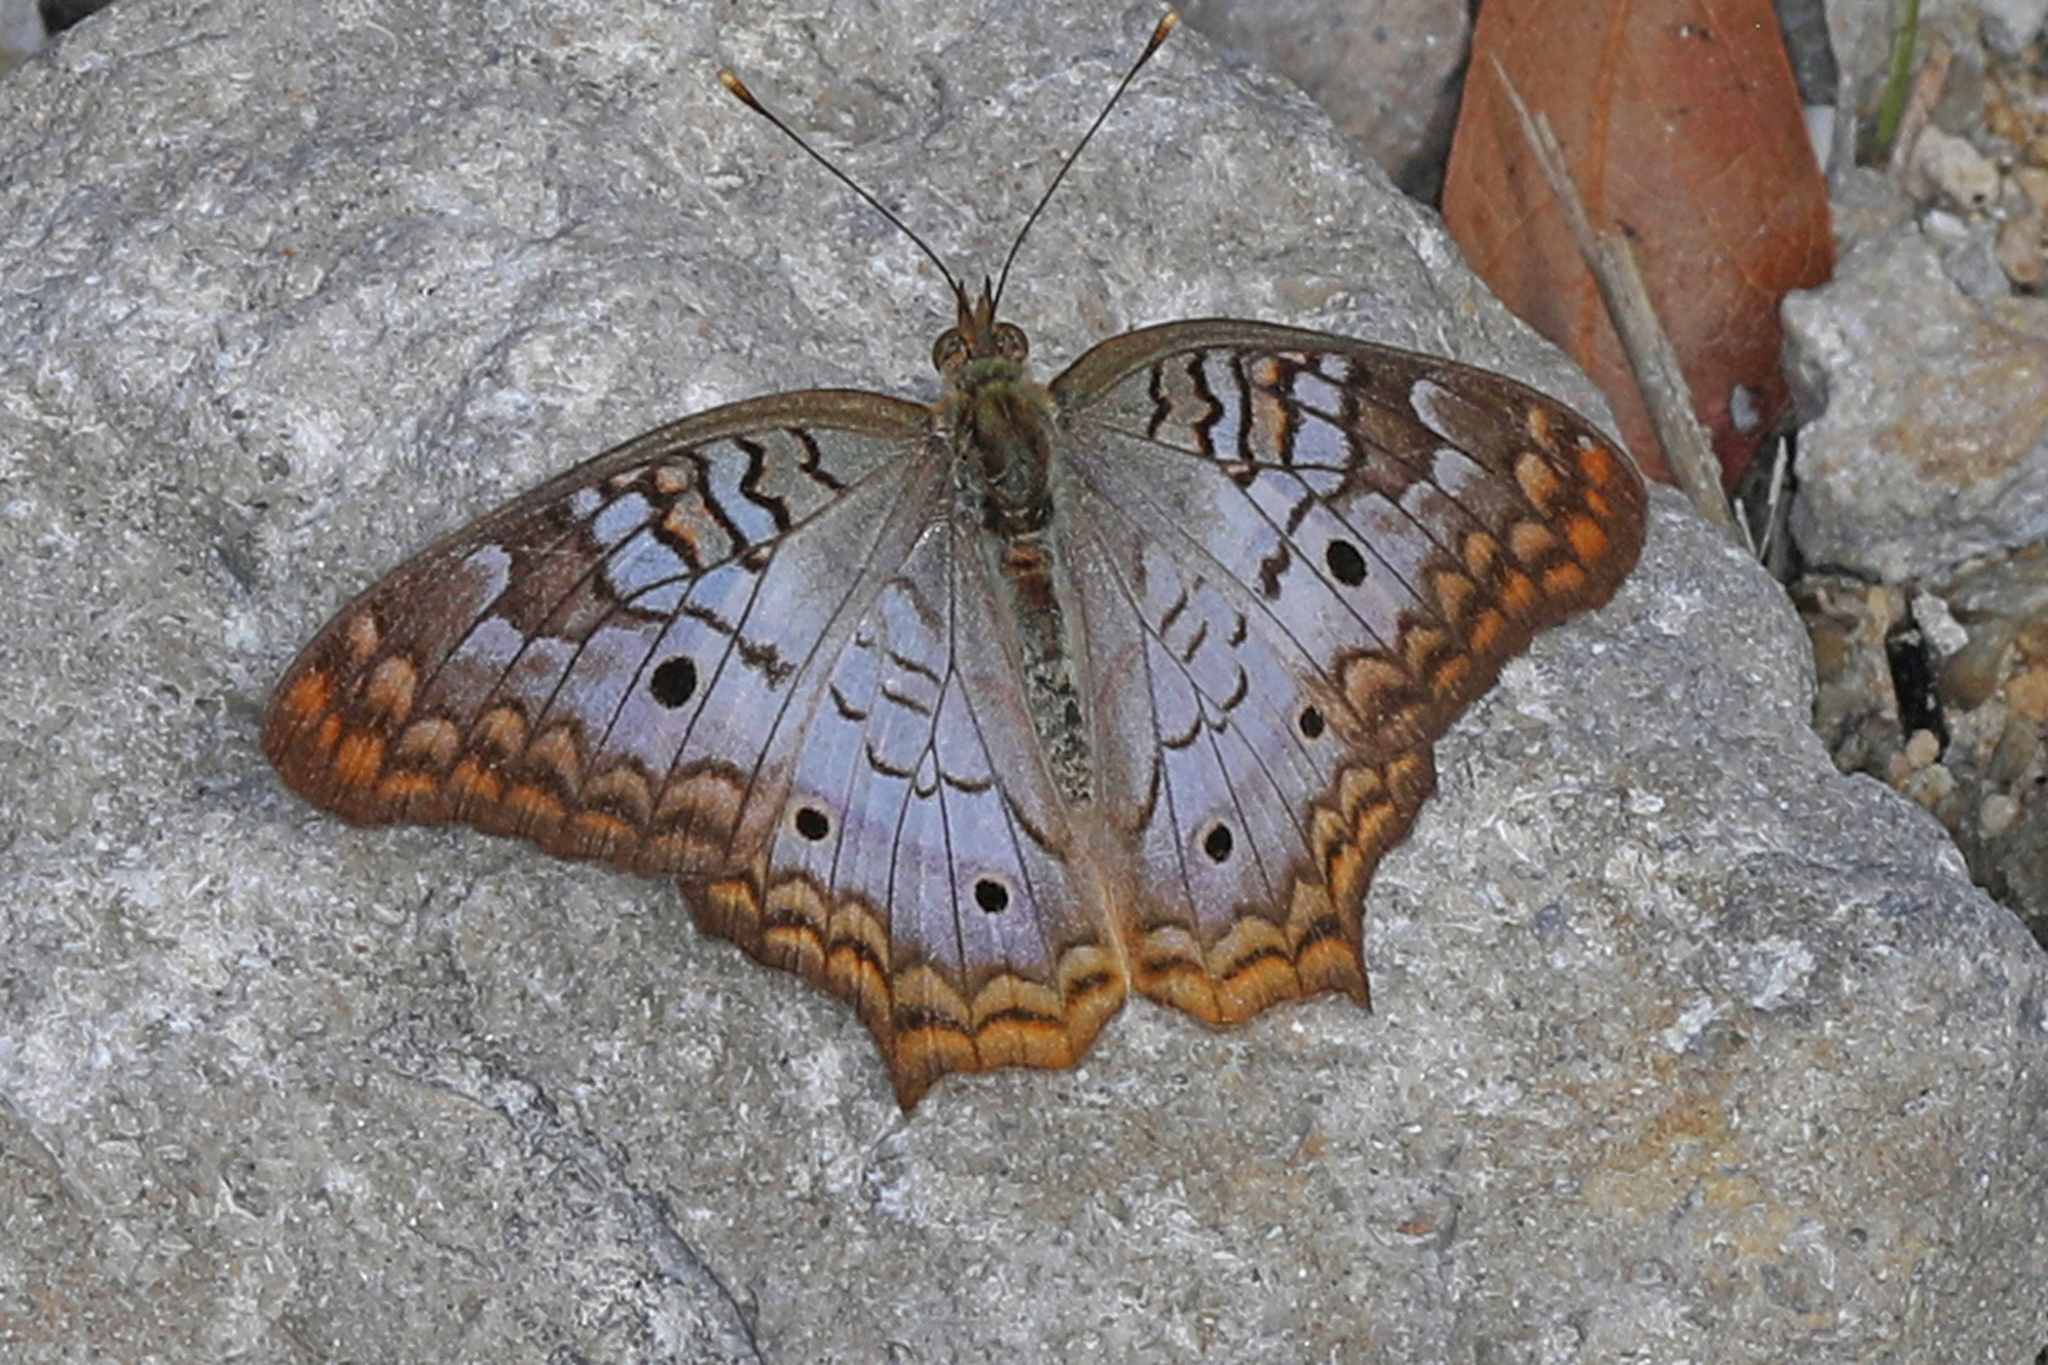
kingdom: Animalia
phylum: Arthropoda
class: Insecta
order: Lepidoptera
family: Nymphalidae
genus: Anartia
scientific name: Anartia jatrophae
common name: White peacock
